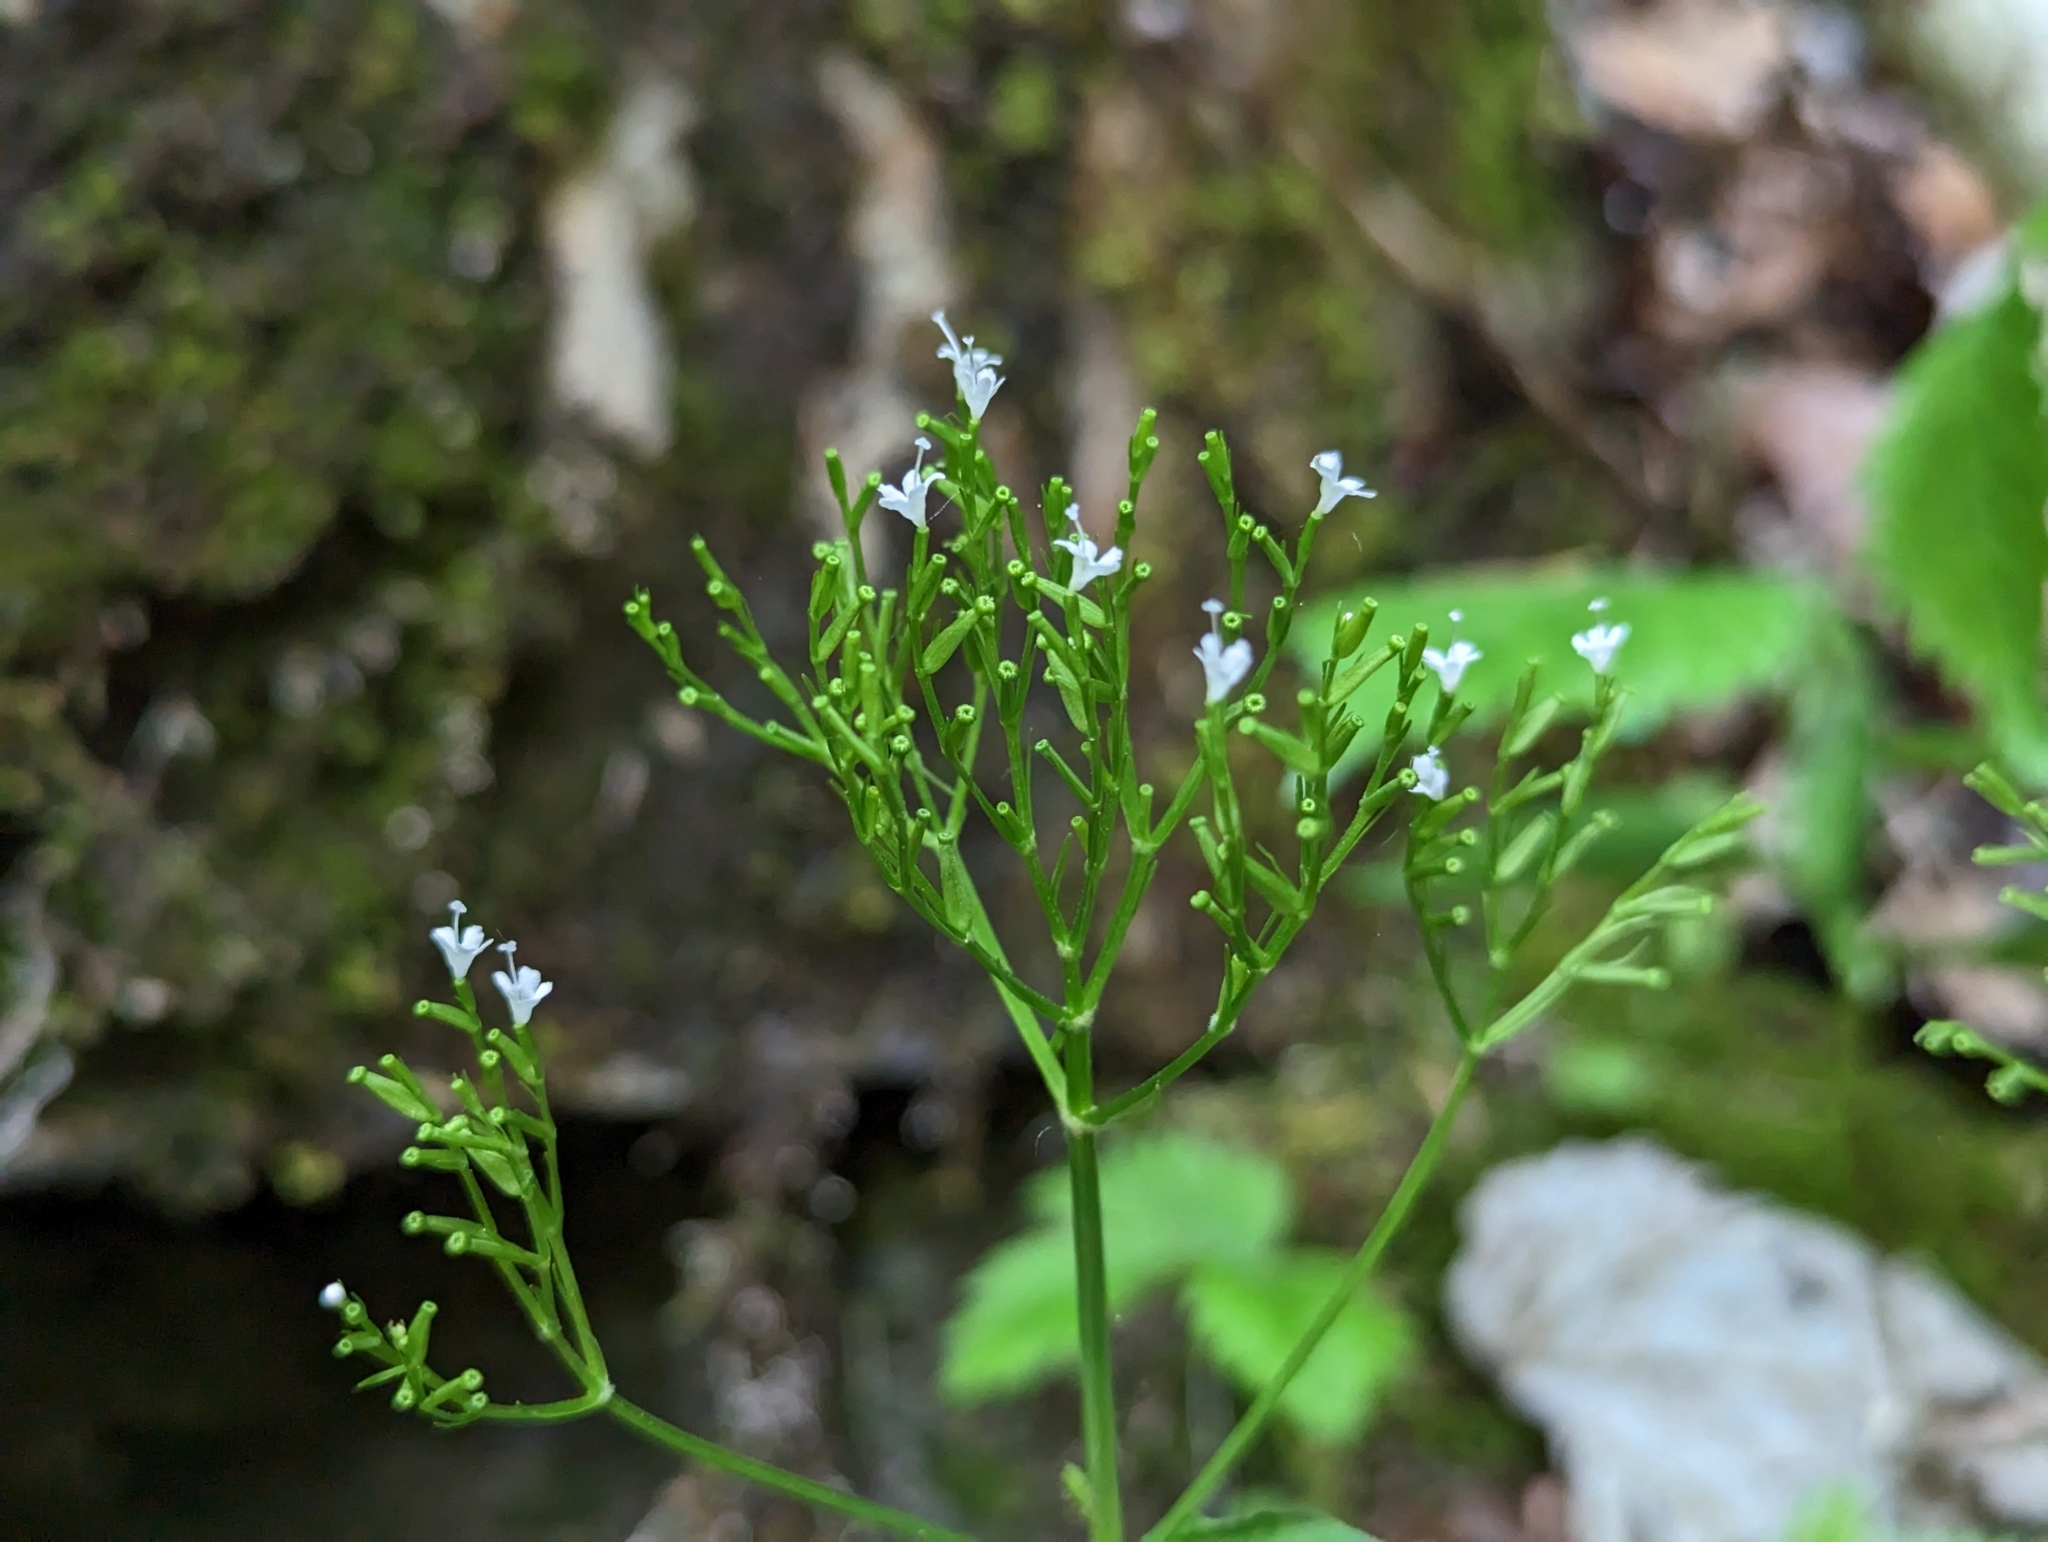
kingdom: Plantae
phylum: Tracheophyta
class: Magnoliopsida
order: Dipsacales
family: Caprifoliaceae
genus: Valeriana
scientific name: Valeriana tripteris
